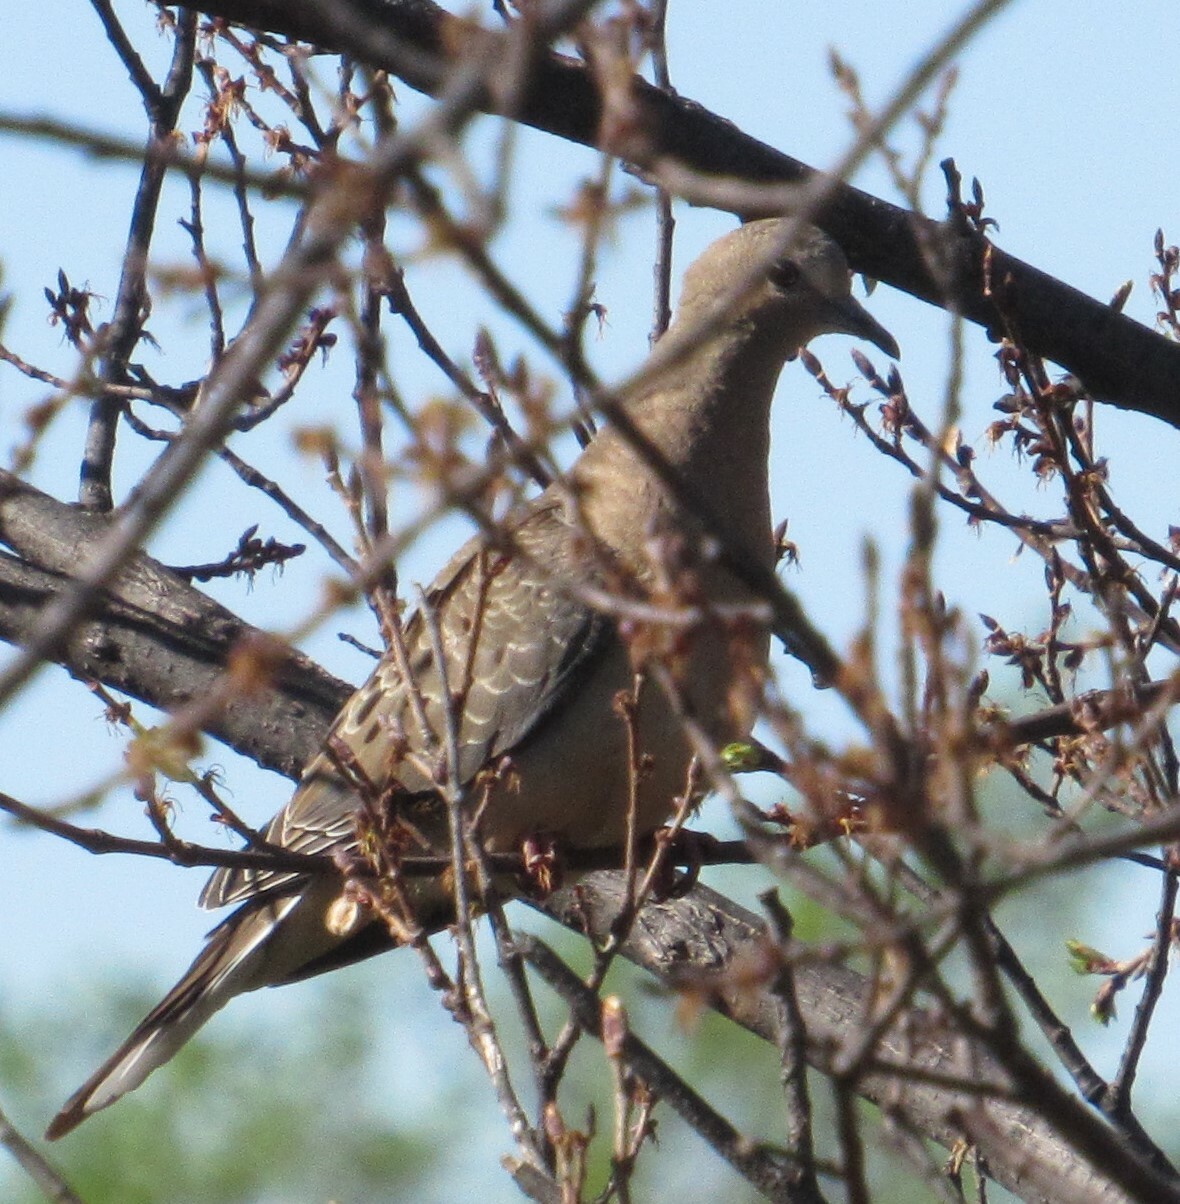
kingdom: Animalia
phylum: Chordata
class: Aves
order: Columbiformes
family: Columbidae
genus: Zenaida
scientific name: Zenaida macroura
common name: Mourning dove
